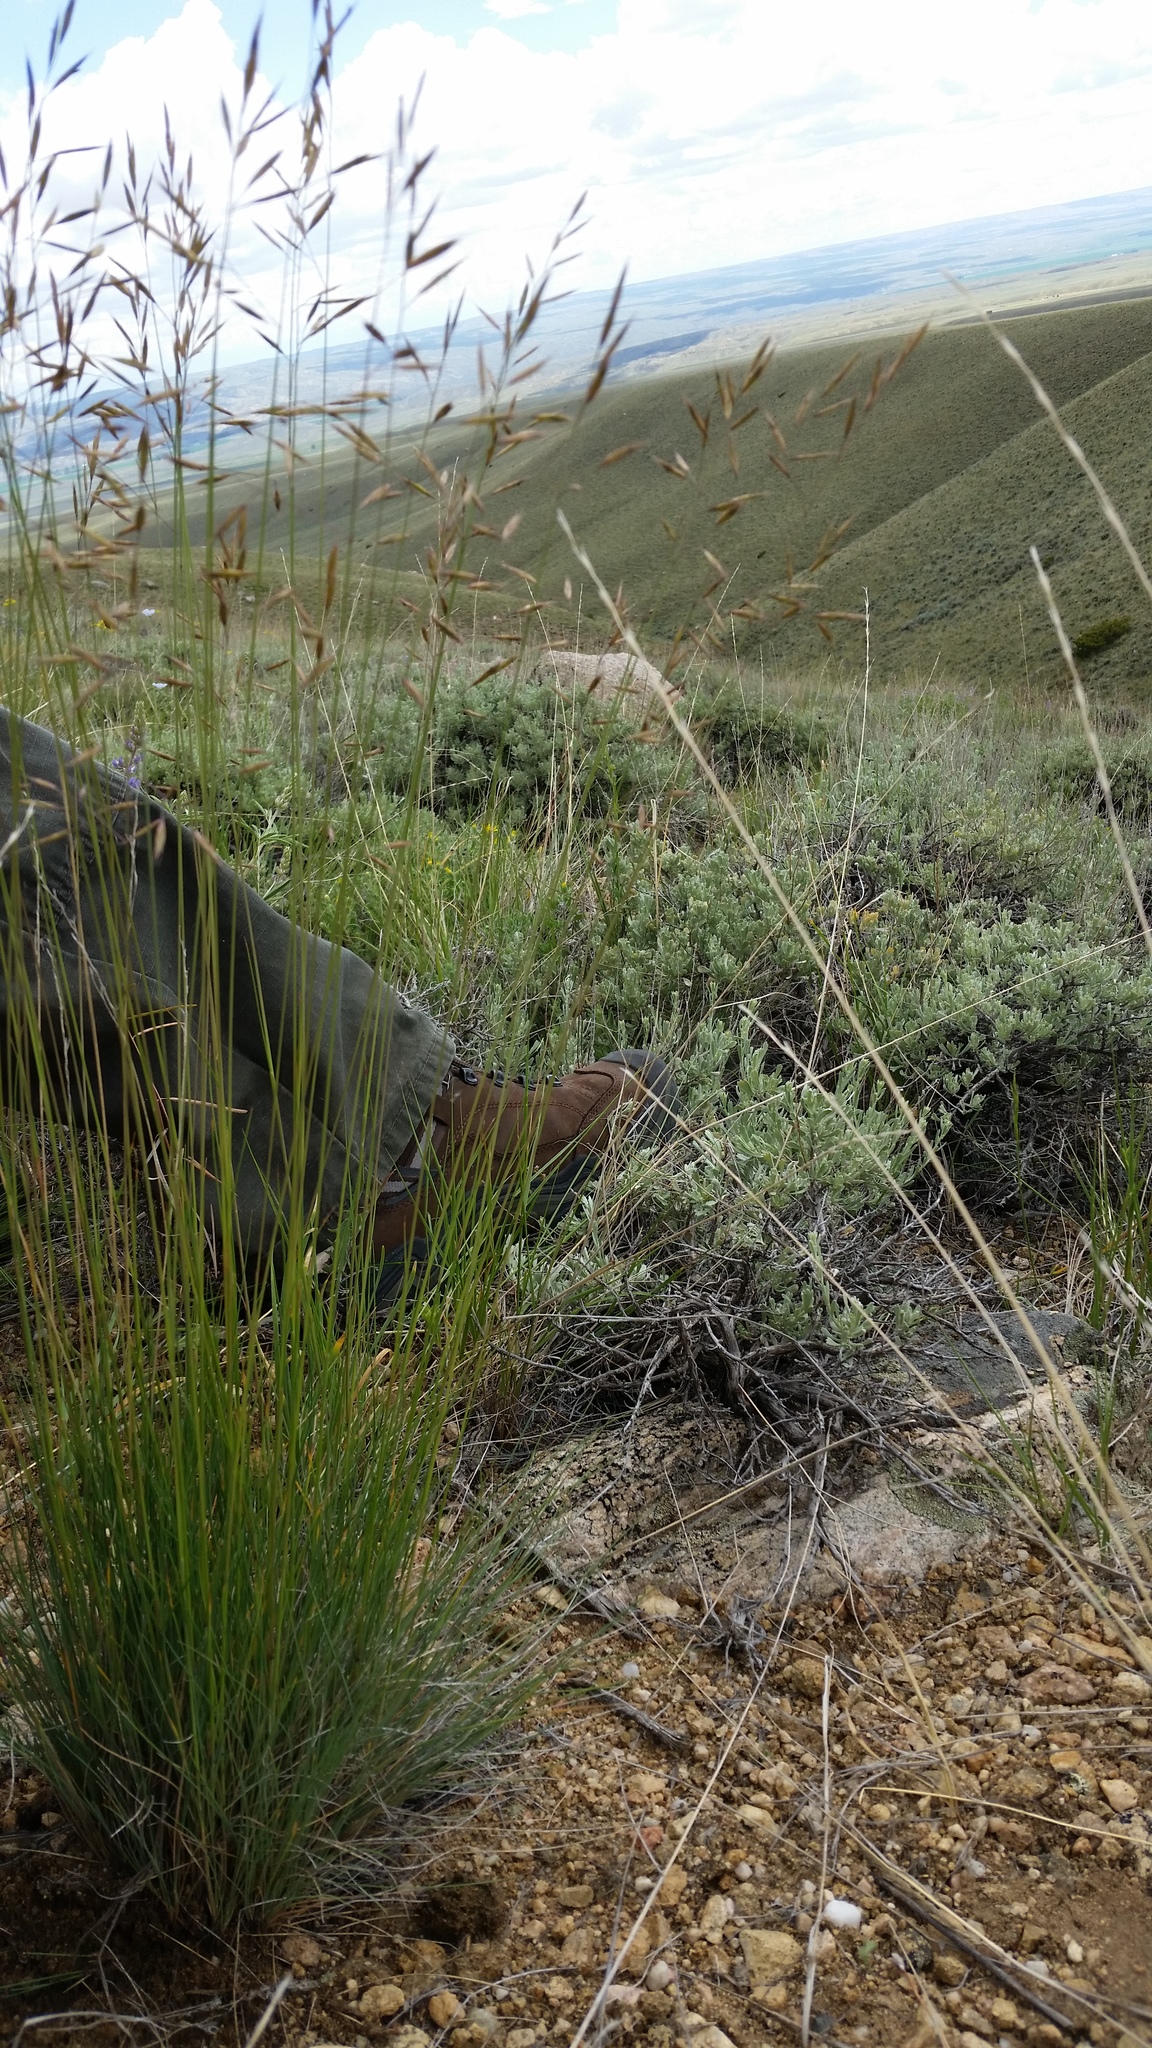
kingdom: Plantae
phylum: Tracheophyta
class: Liliopsida
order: Poales
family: Poaceae
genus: Festuca
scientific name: Festuca idahoensis
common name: Idaho fescue
